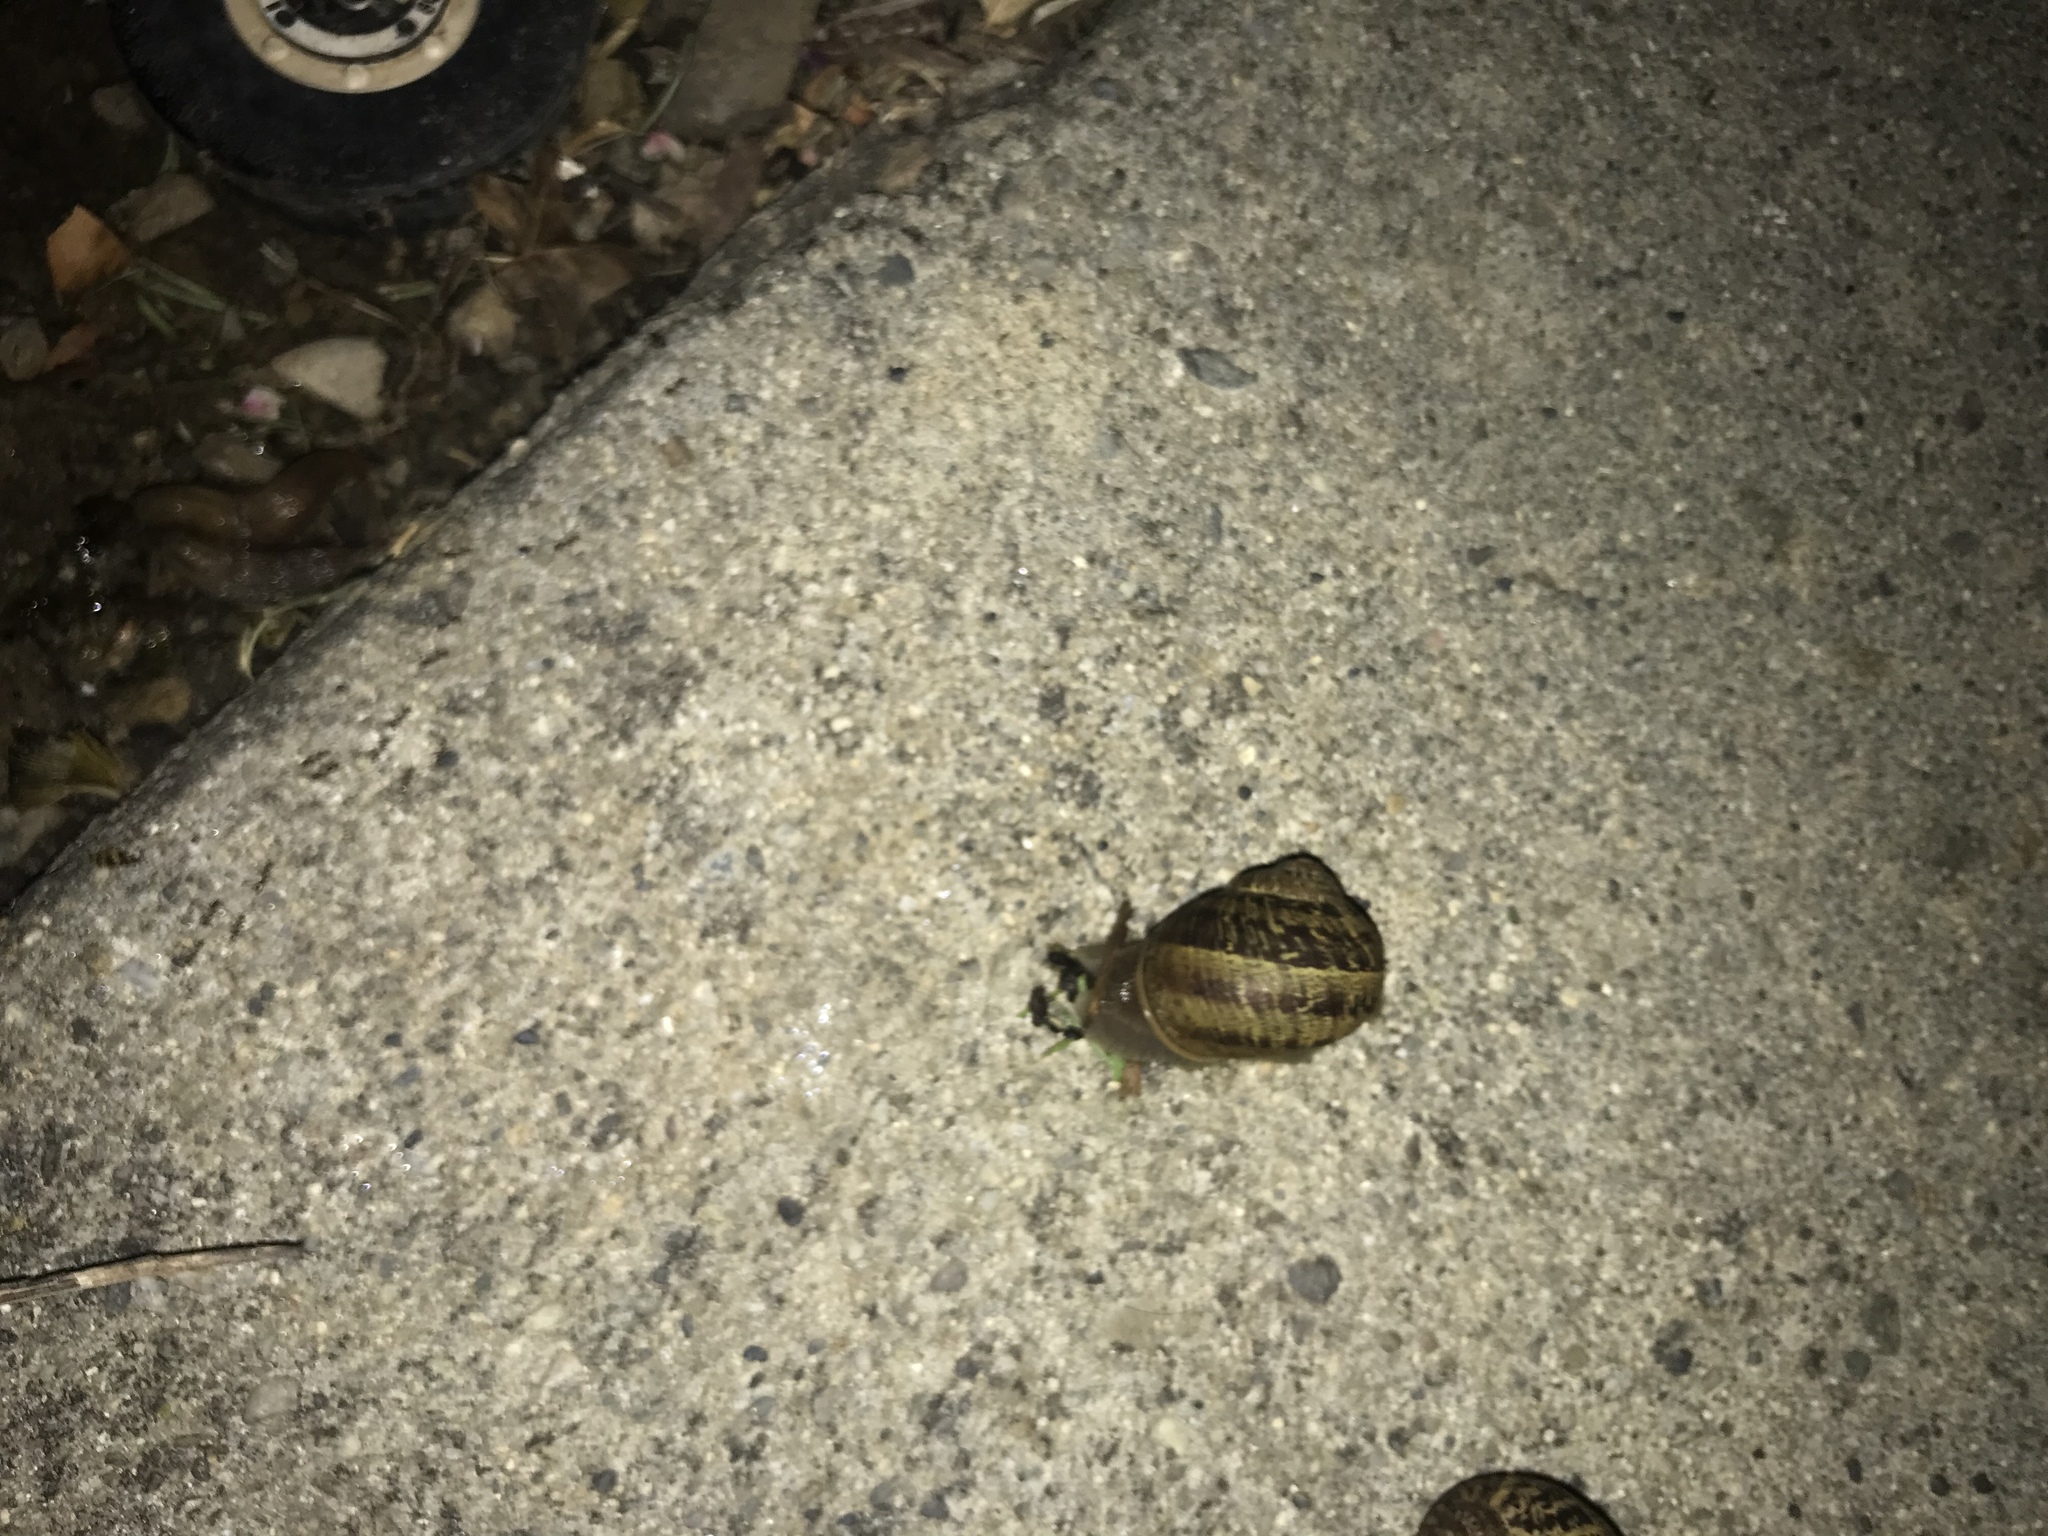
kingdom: Animalia
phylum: Mollusca
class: Gastropoda
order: Stylommatophora
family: Helicidae
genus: Cornu
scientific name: Cornu aspersum
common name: Brown garden snail
